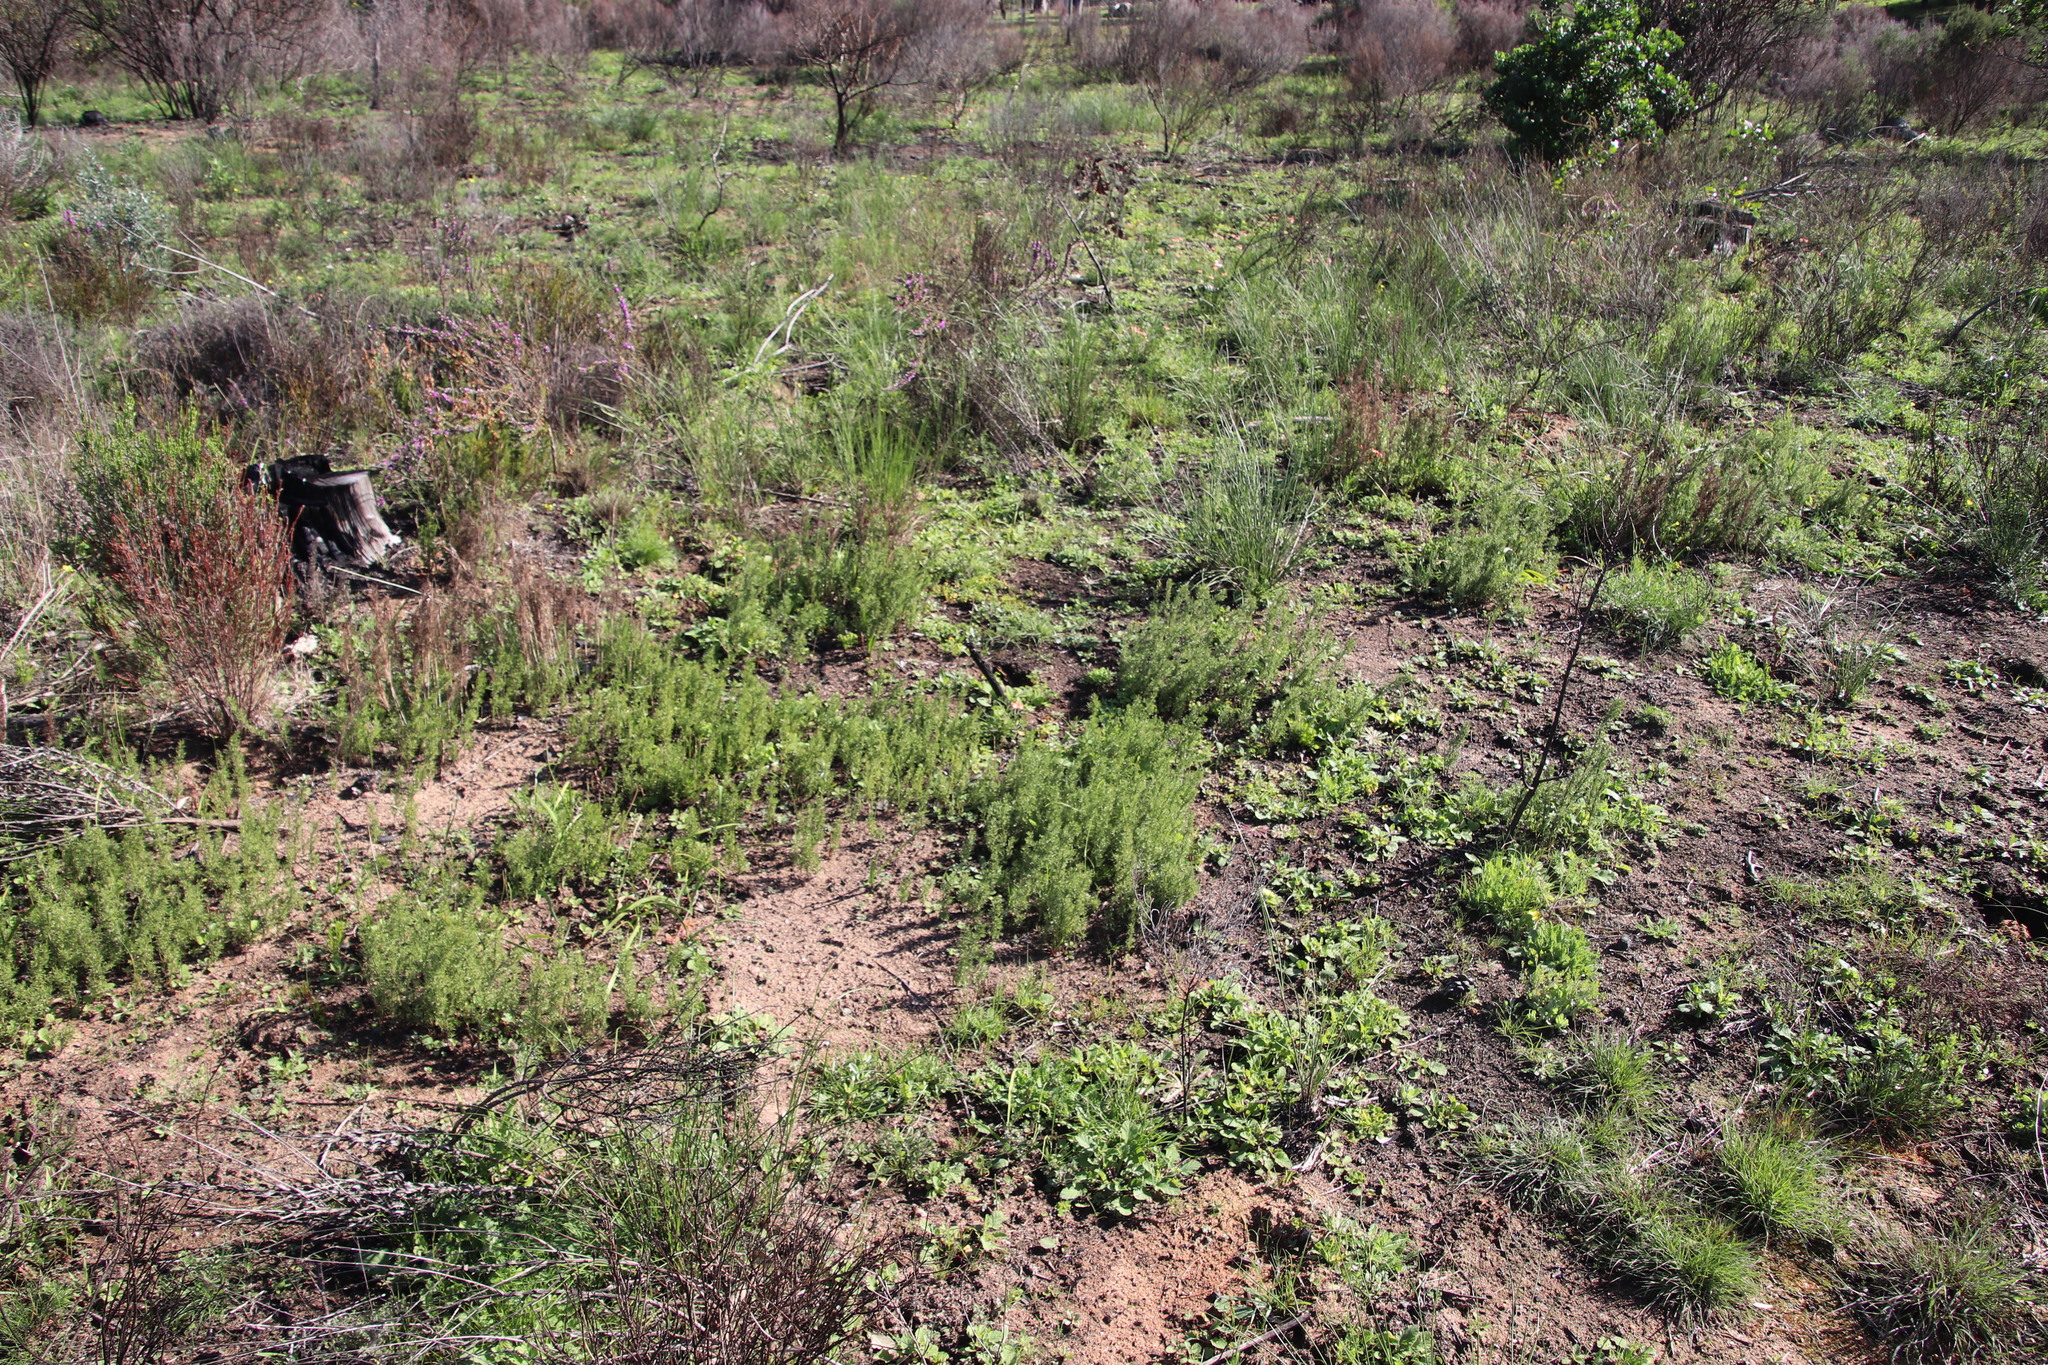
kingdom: Plantae
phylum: Tracheophyta
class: Liliopsida
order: Poales
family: Restionaceae
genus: Thamnochortus
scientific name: Thamnochortus fruticosus
